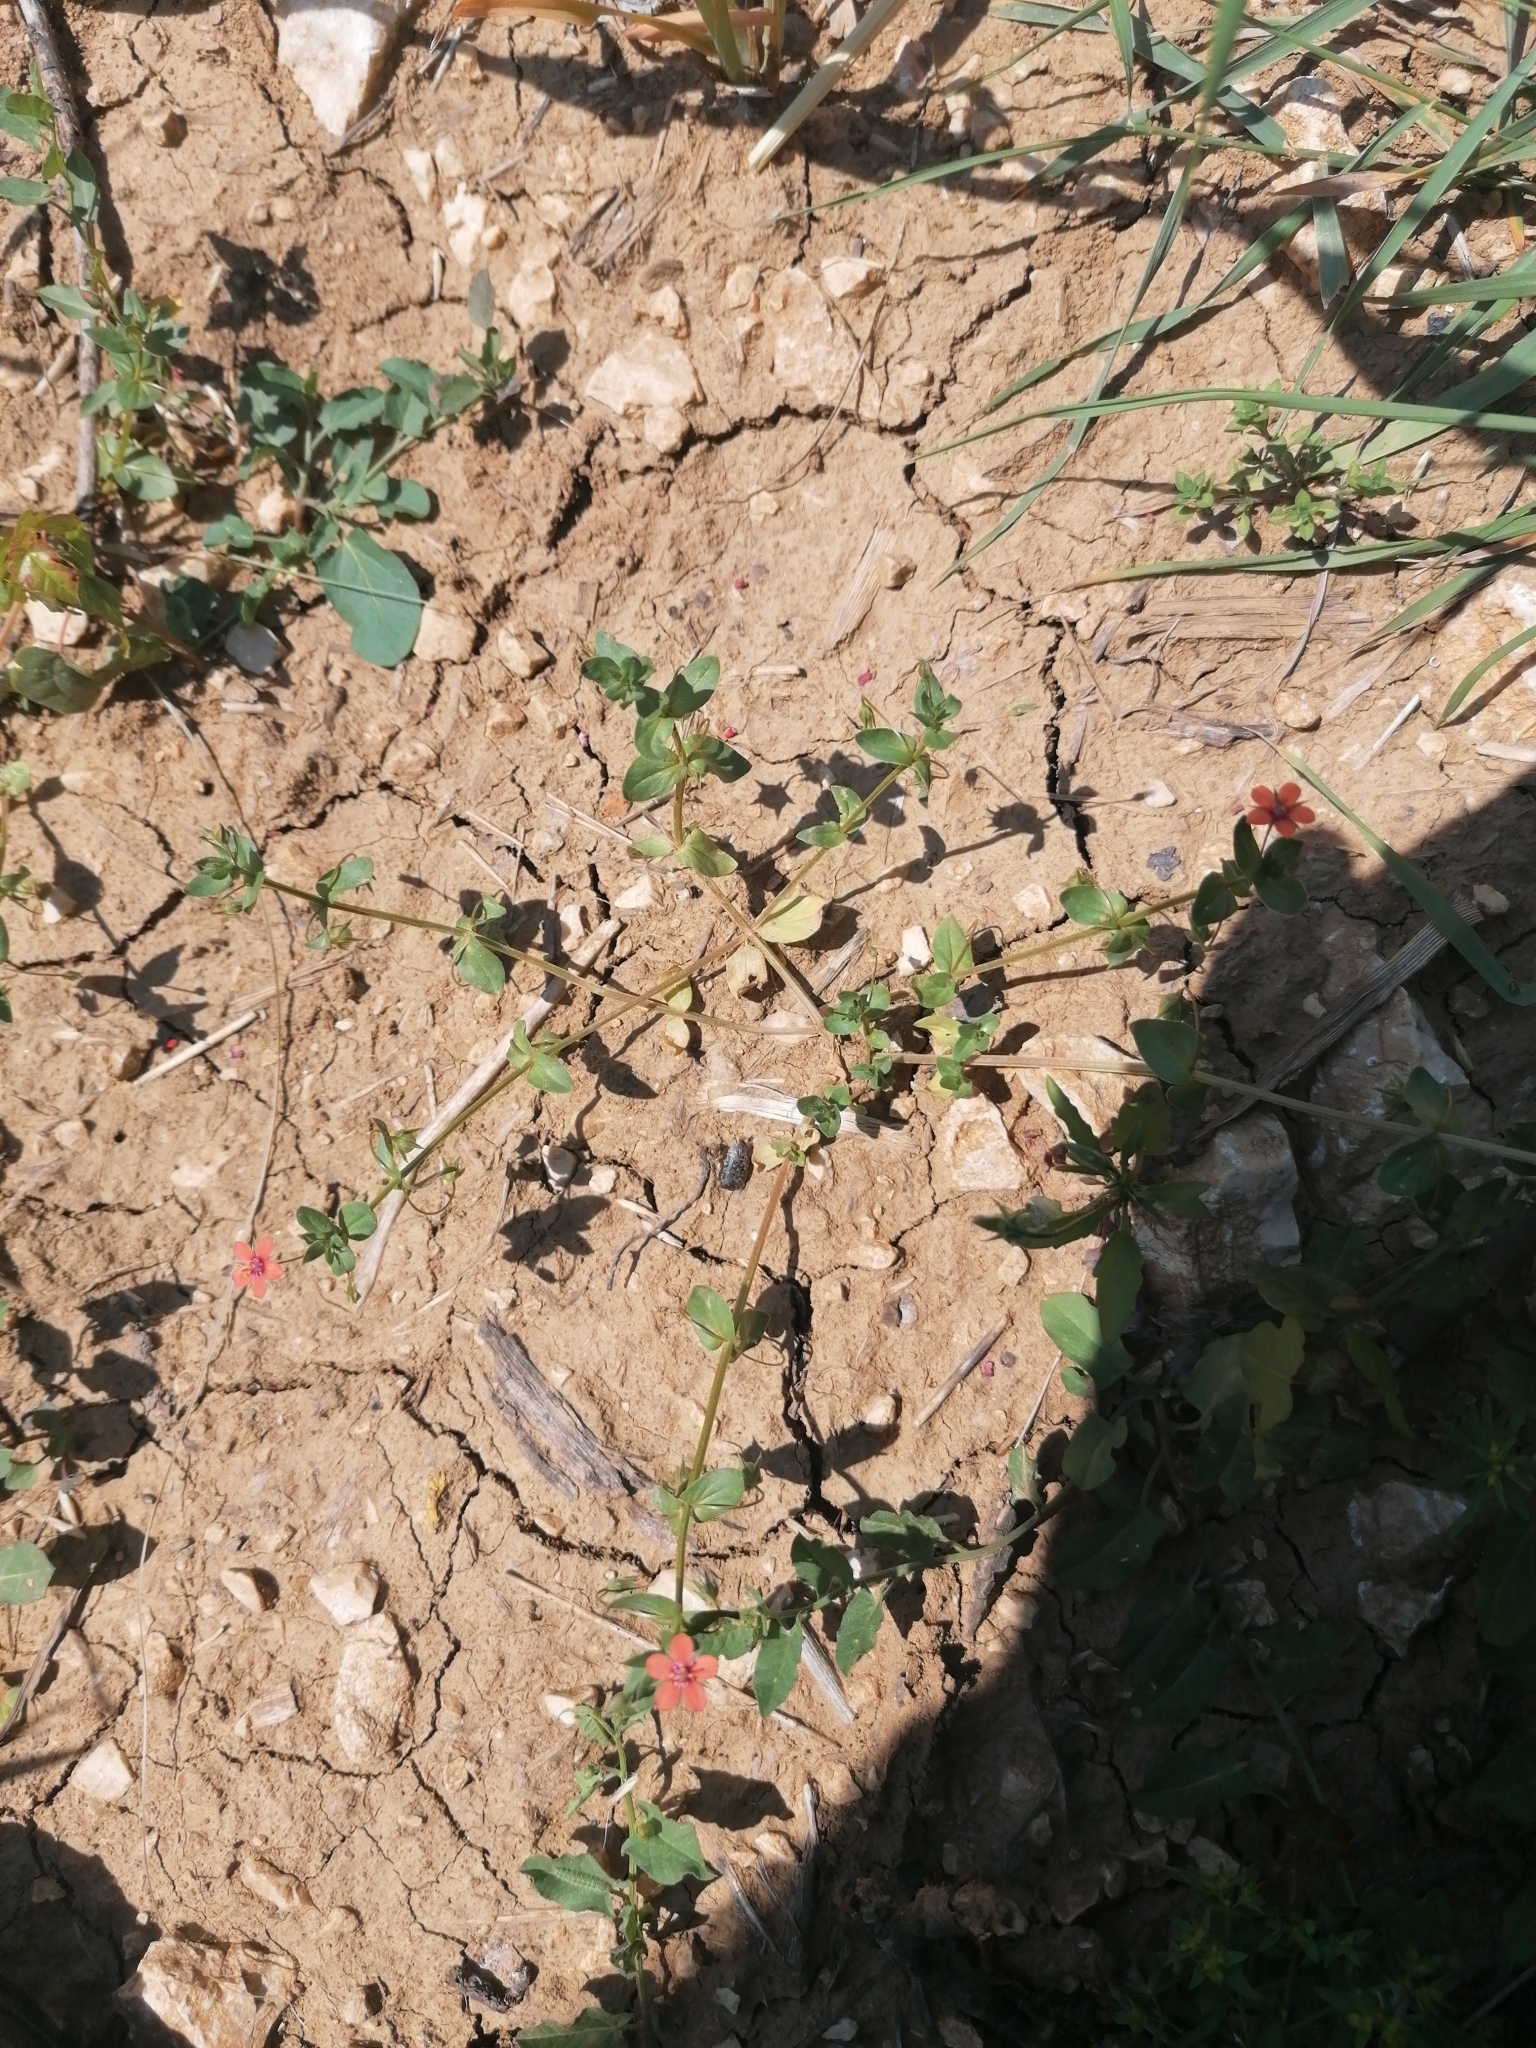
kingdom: Plantae
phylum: Tracheophyta
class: Magnoliopsida
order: Ericales
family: Primulaceae
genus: Lysimachia
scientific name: Lysimachia arvensis
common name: Scarlet pimpernel
